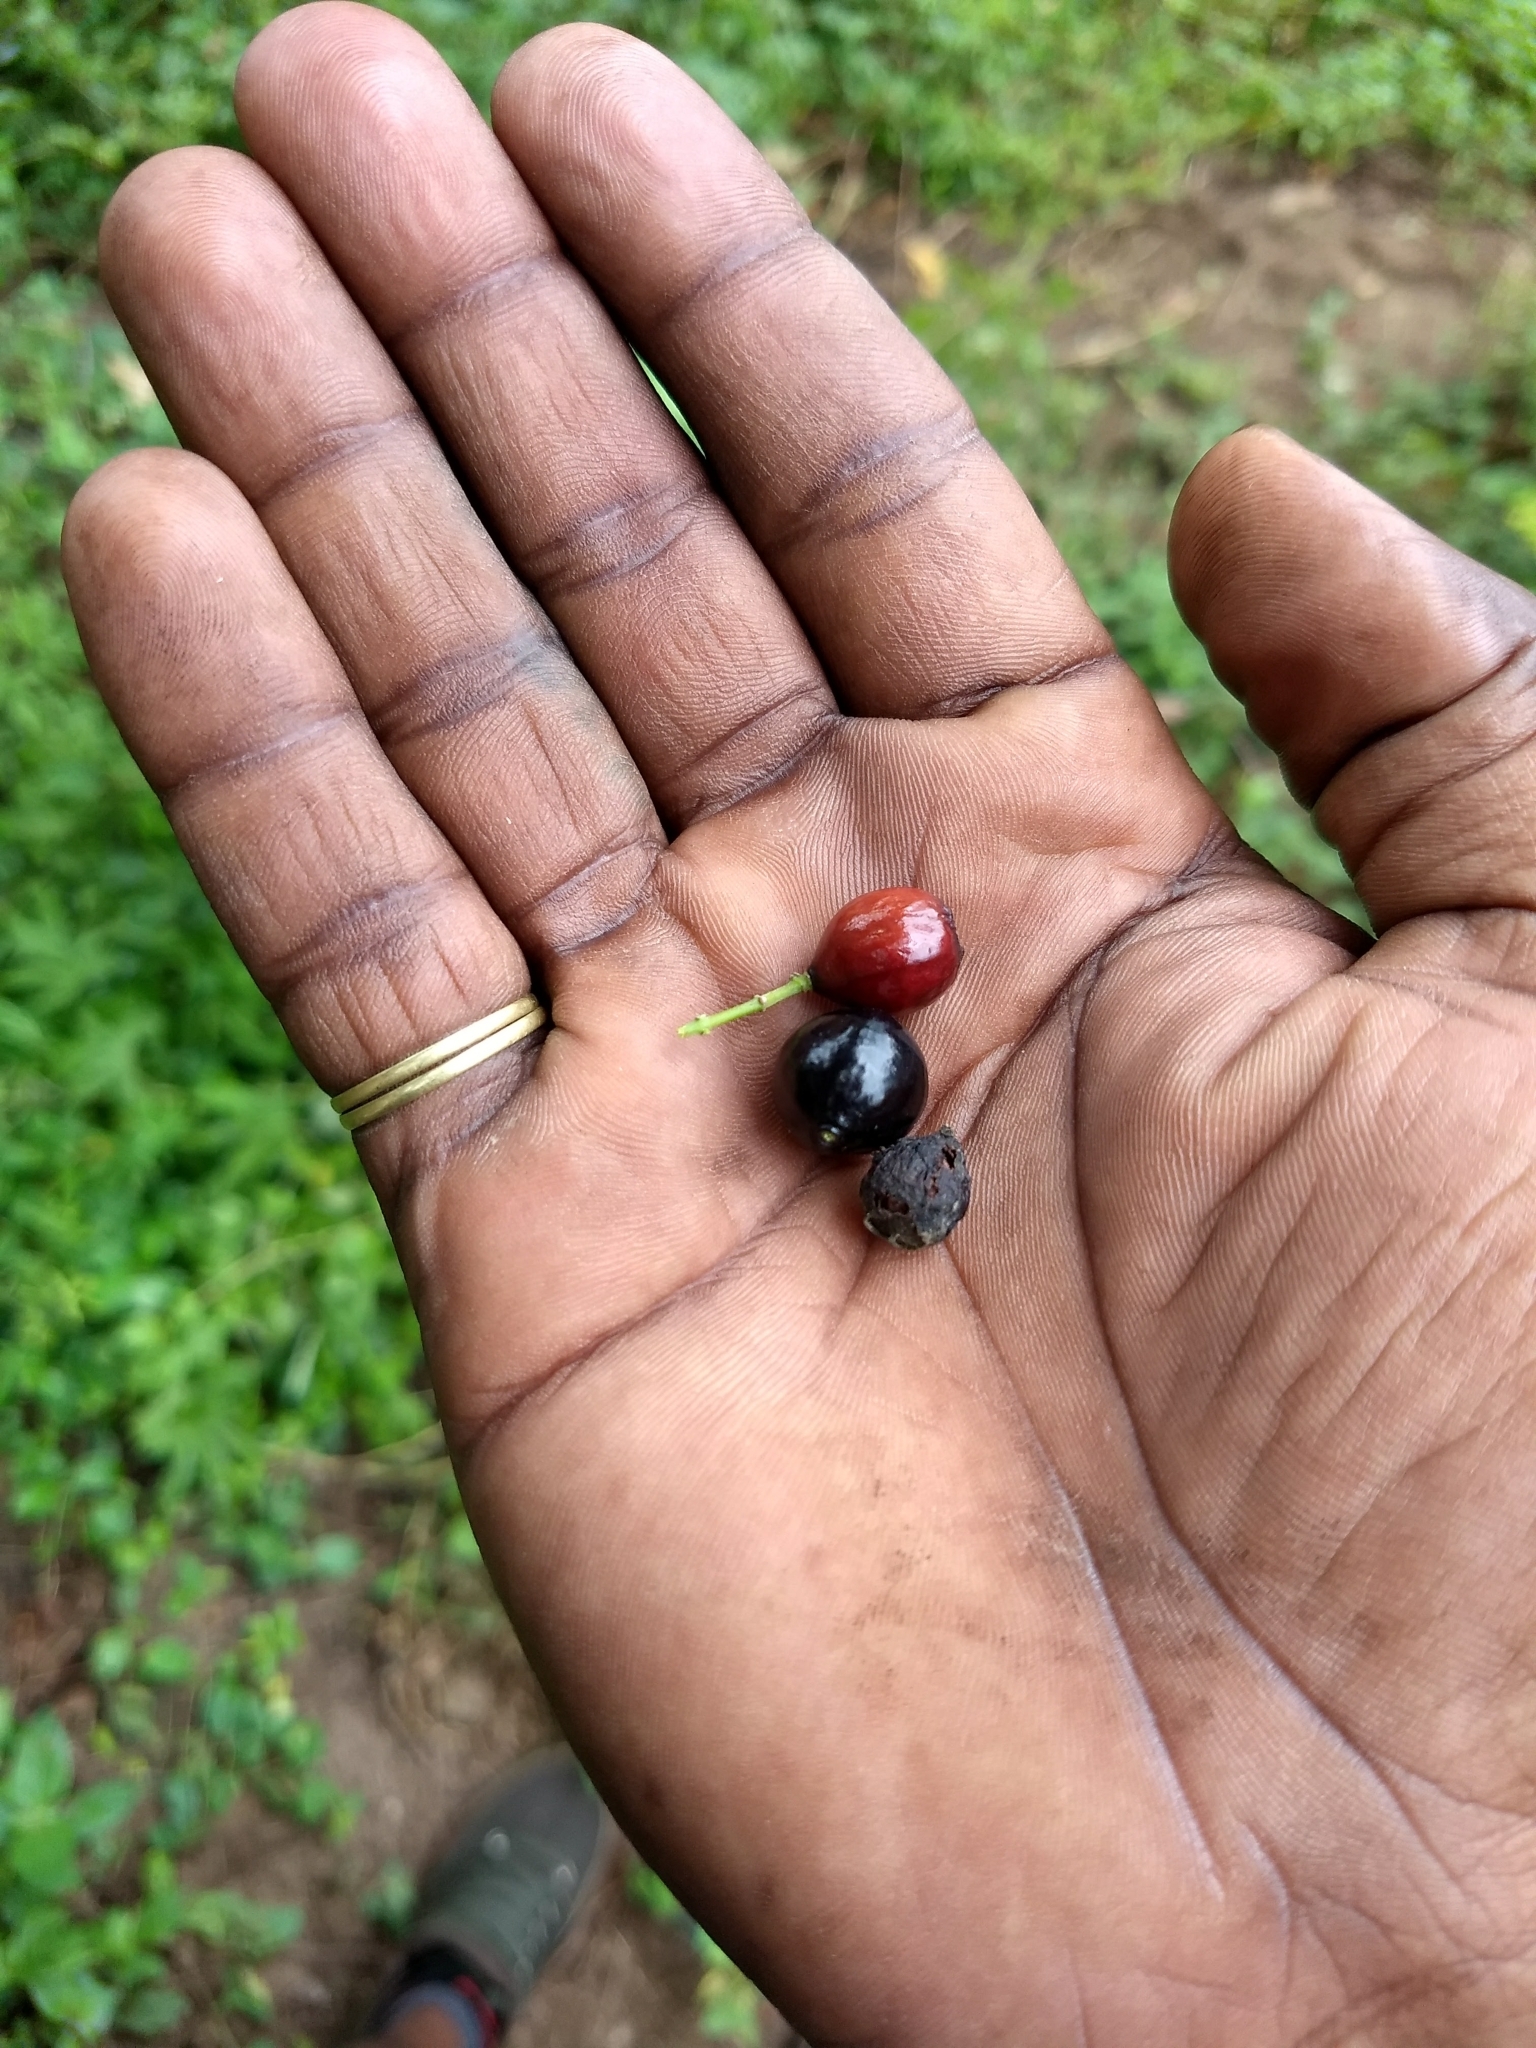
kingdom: Plantae
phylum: Tracheophyta
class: Magnoliopsida
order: Santalales
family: Santalaceae
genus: Santalum
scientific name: Santalum album
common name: Indian sandalwood
